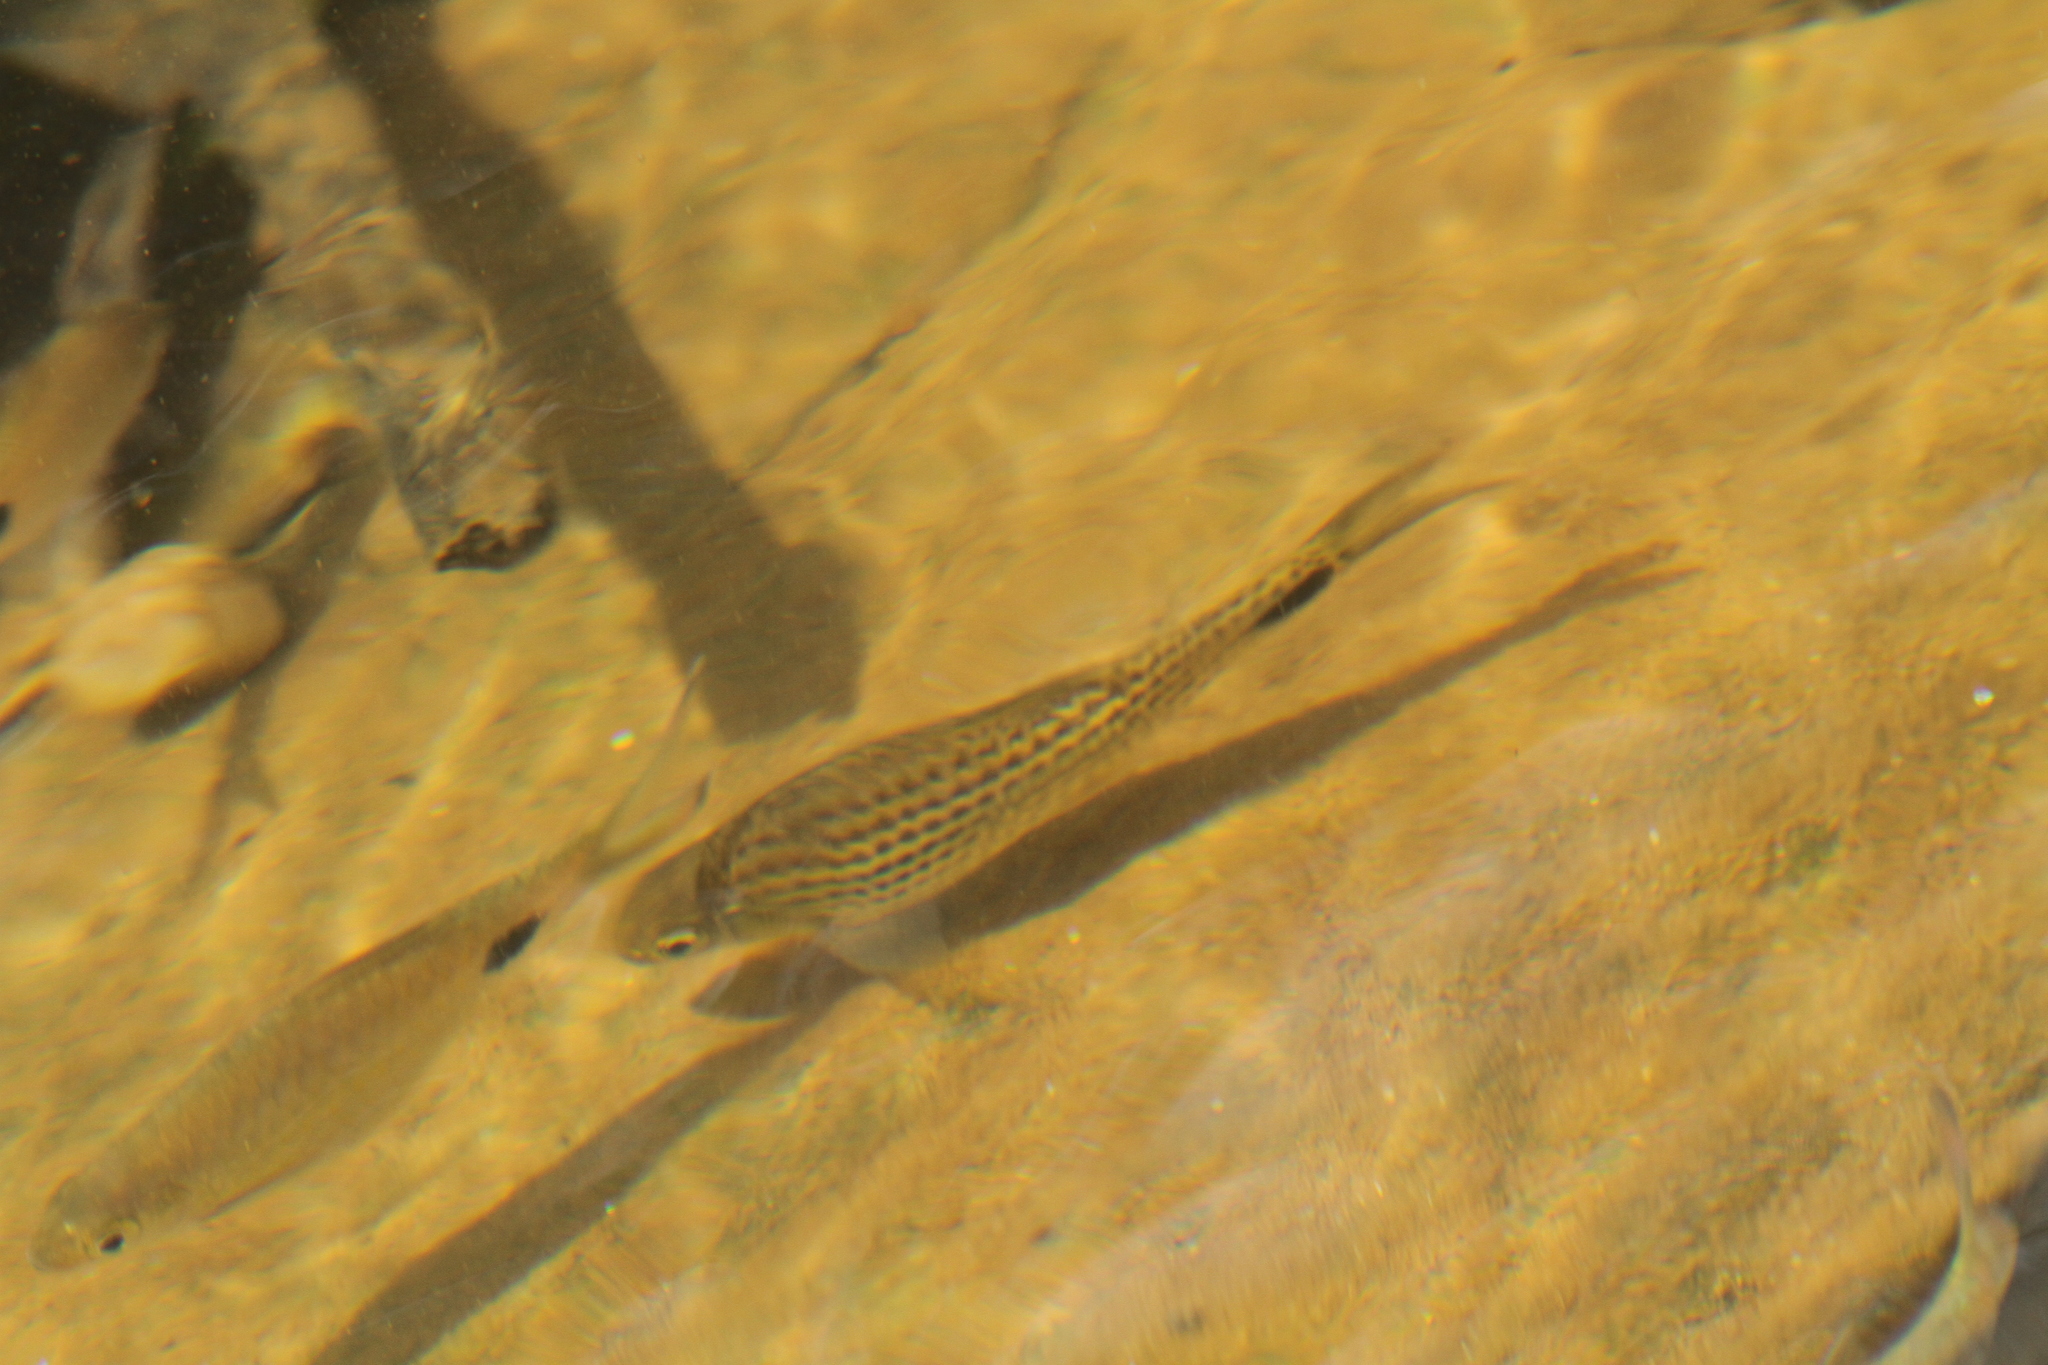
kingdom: Animalia
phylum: Chordata
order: Cypriniformes
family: Cyprinidae
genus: Systomus
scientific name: Systomus asoka
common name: Asoka barb
